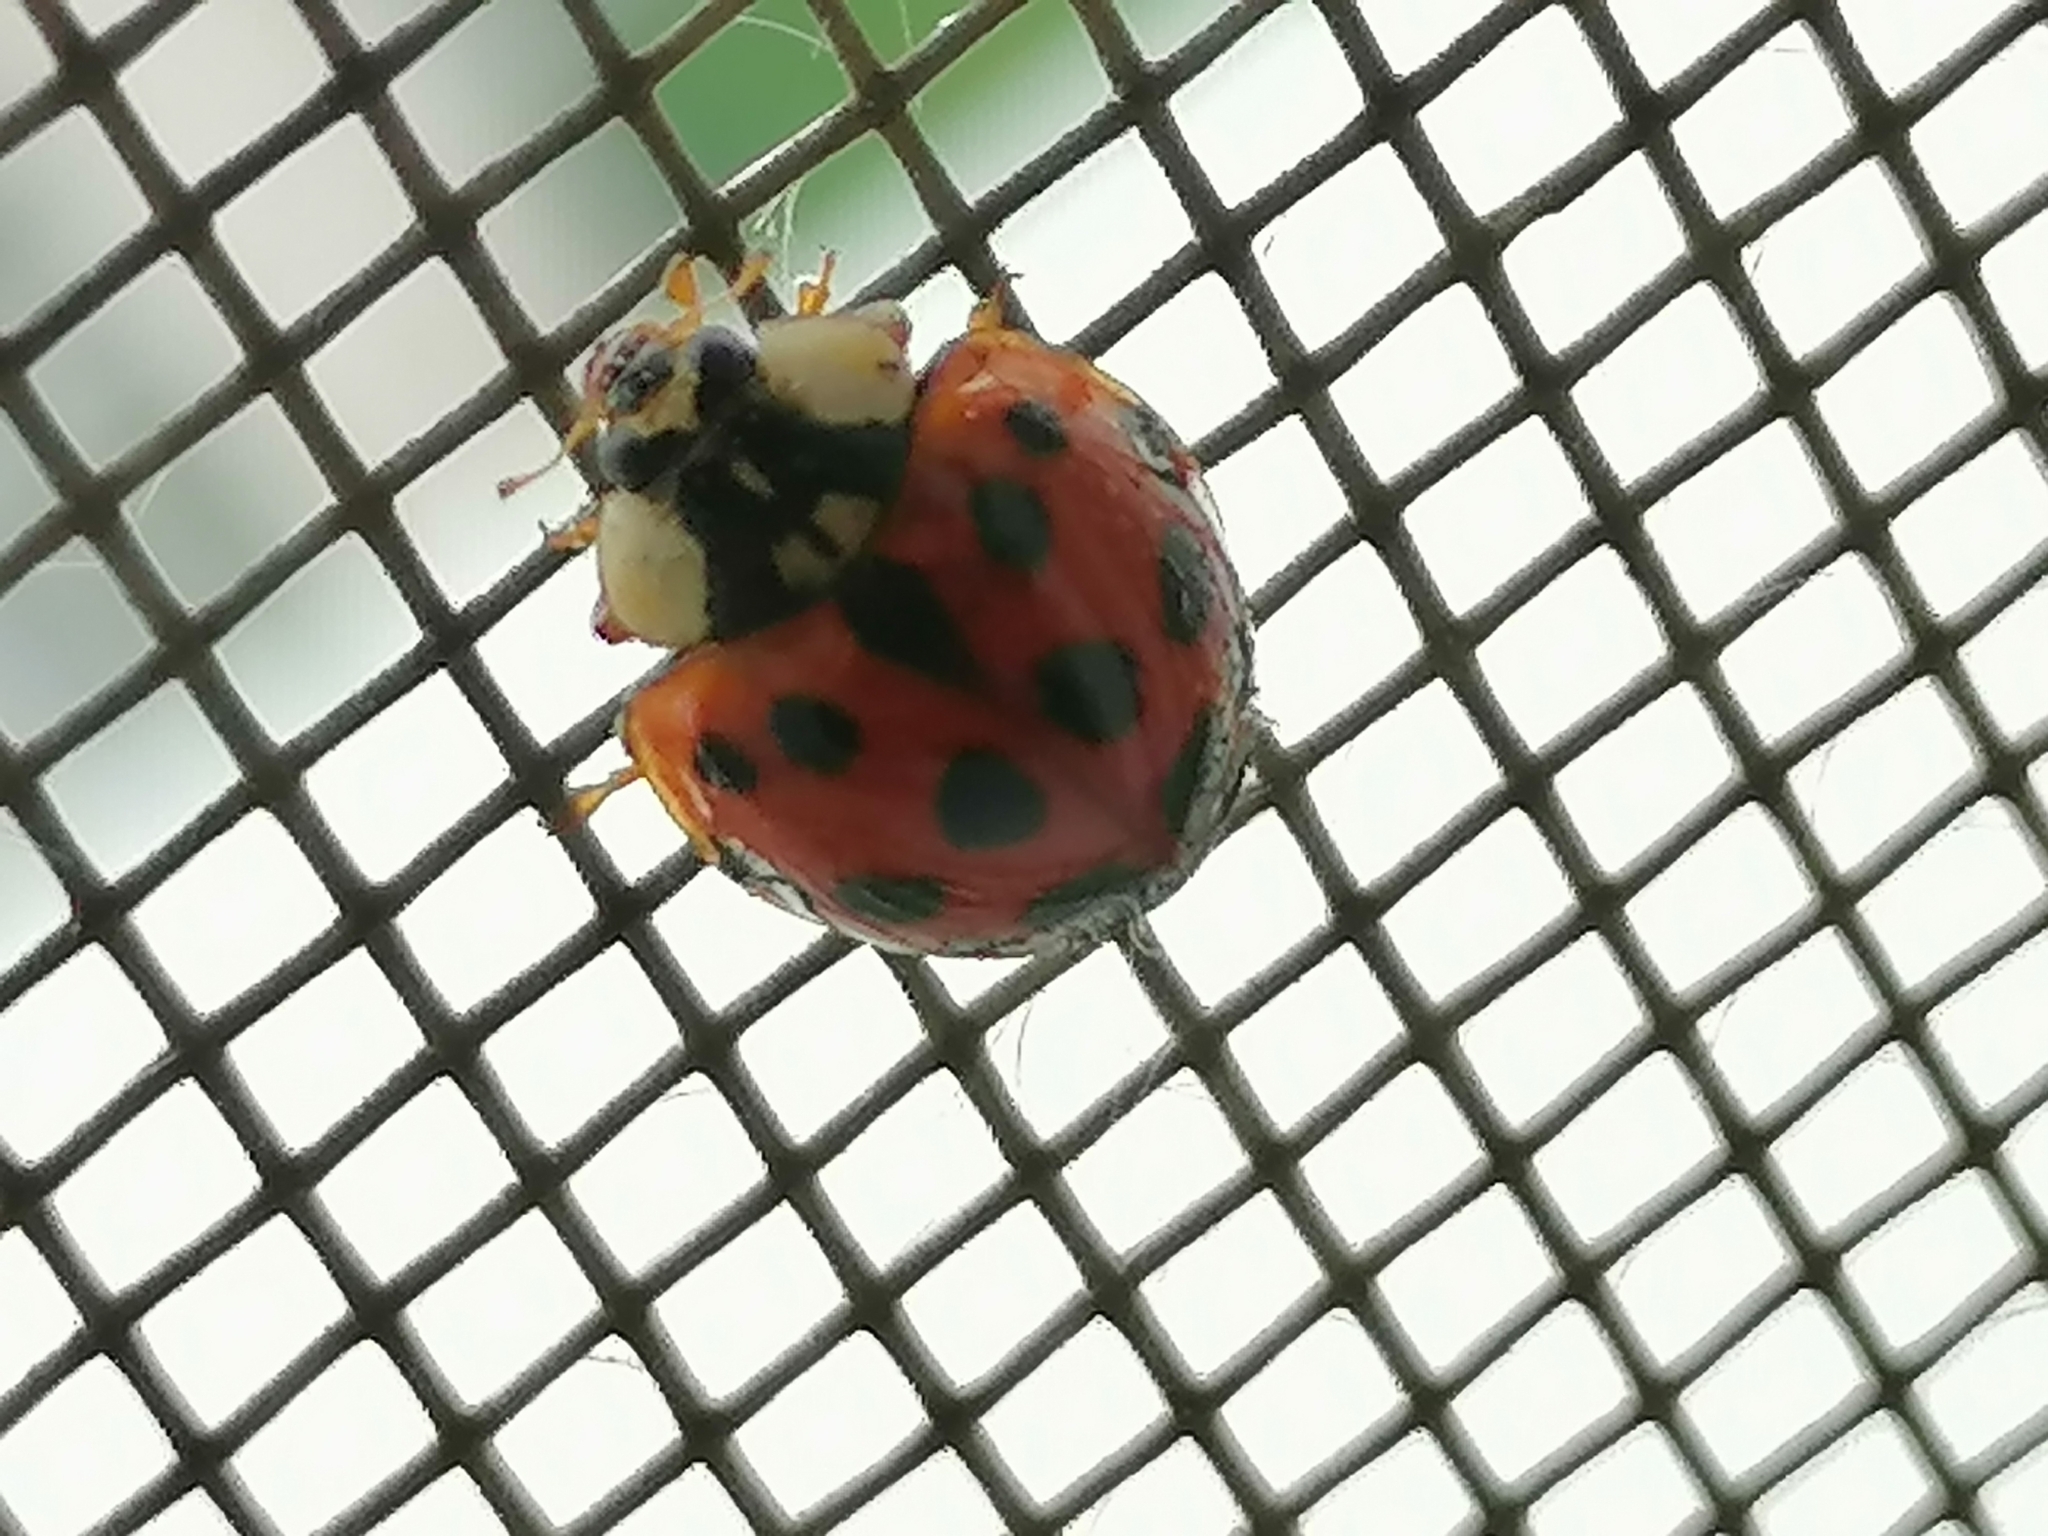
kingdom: Animalia
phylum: Arthropoda
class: Insecta
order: Coleoptera
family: Coccinellidae
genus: Harmonia
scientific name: Harmonia axyridis
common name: Harlequin ladybird
